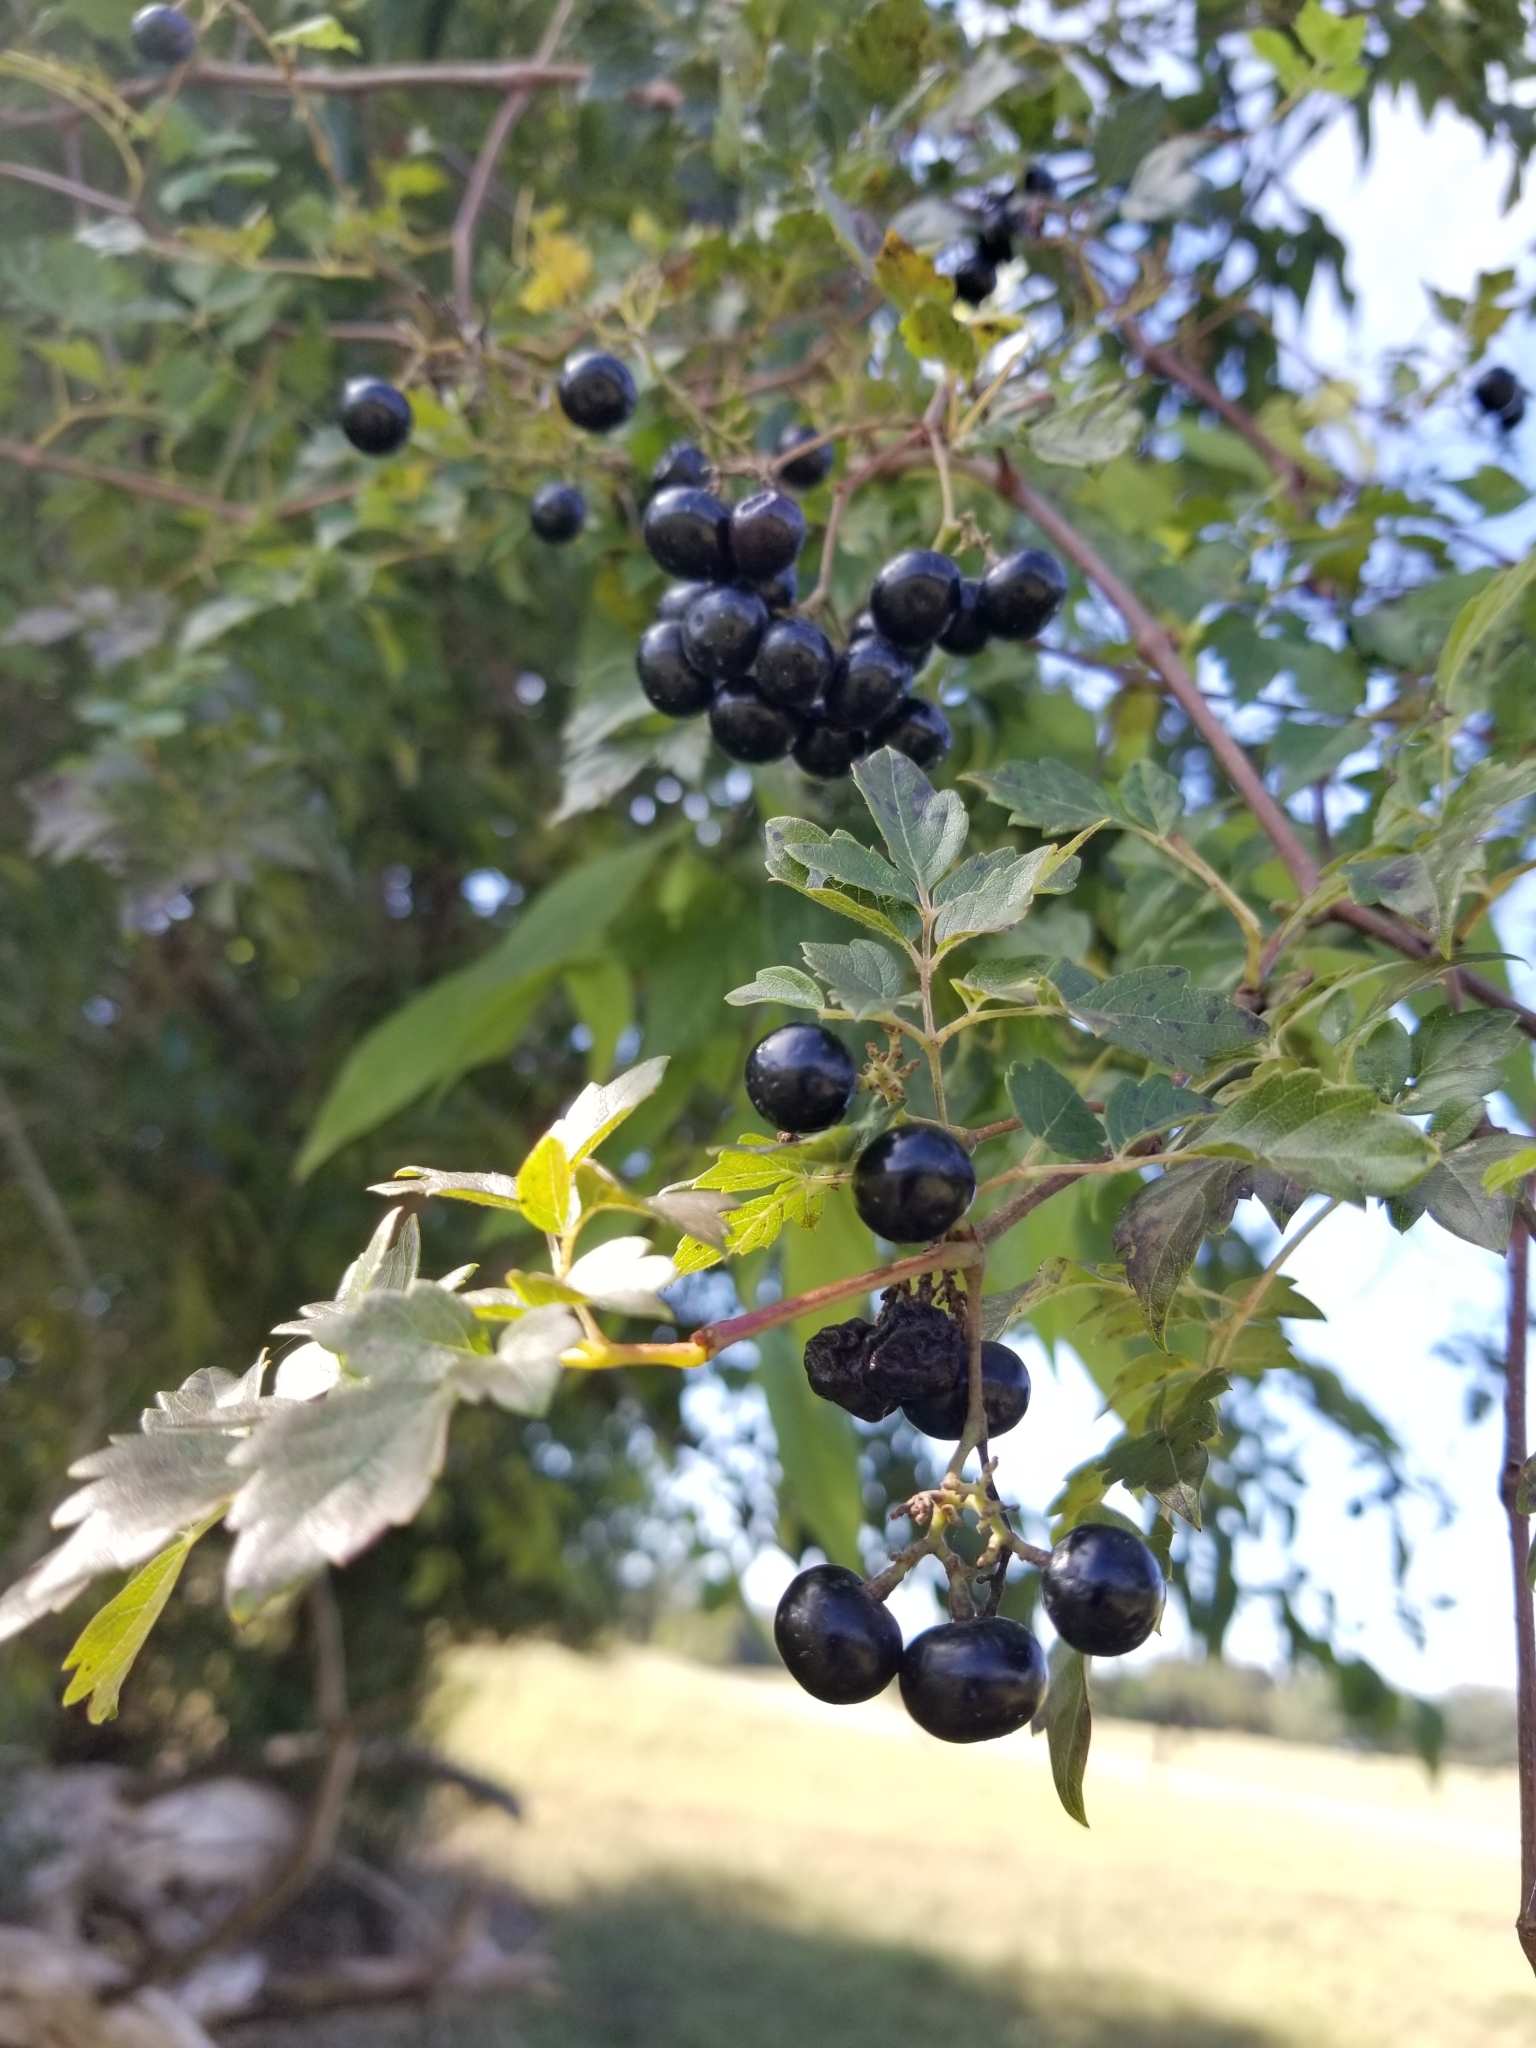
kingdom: Plantae
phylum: Tracheophyta
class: Magnoliopsida
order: Vitales
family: Vitaceae
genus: Nekemias
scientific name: Nekemias arborea
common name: Peppervine
